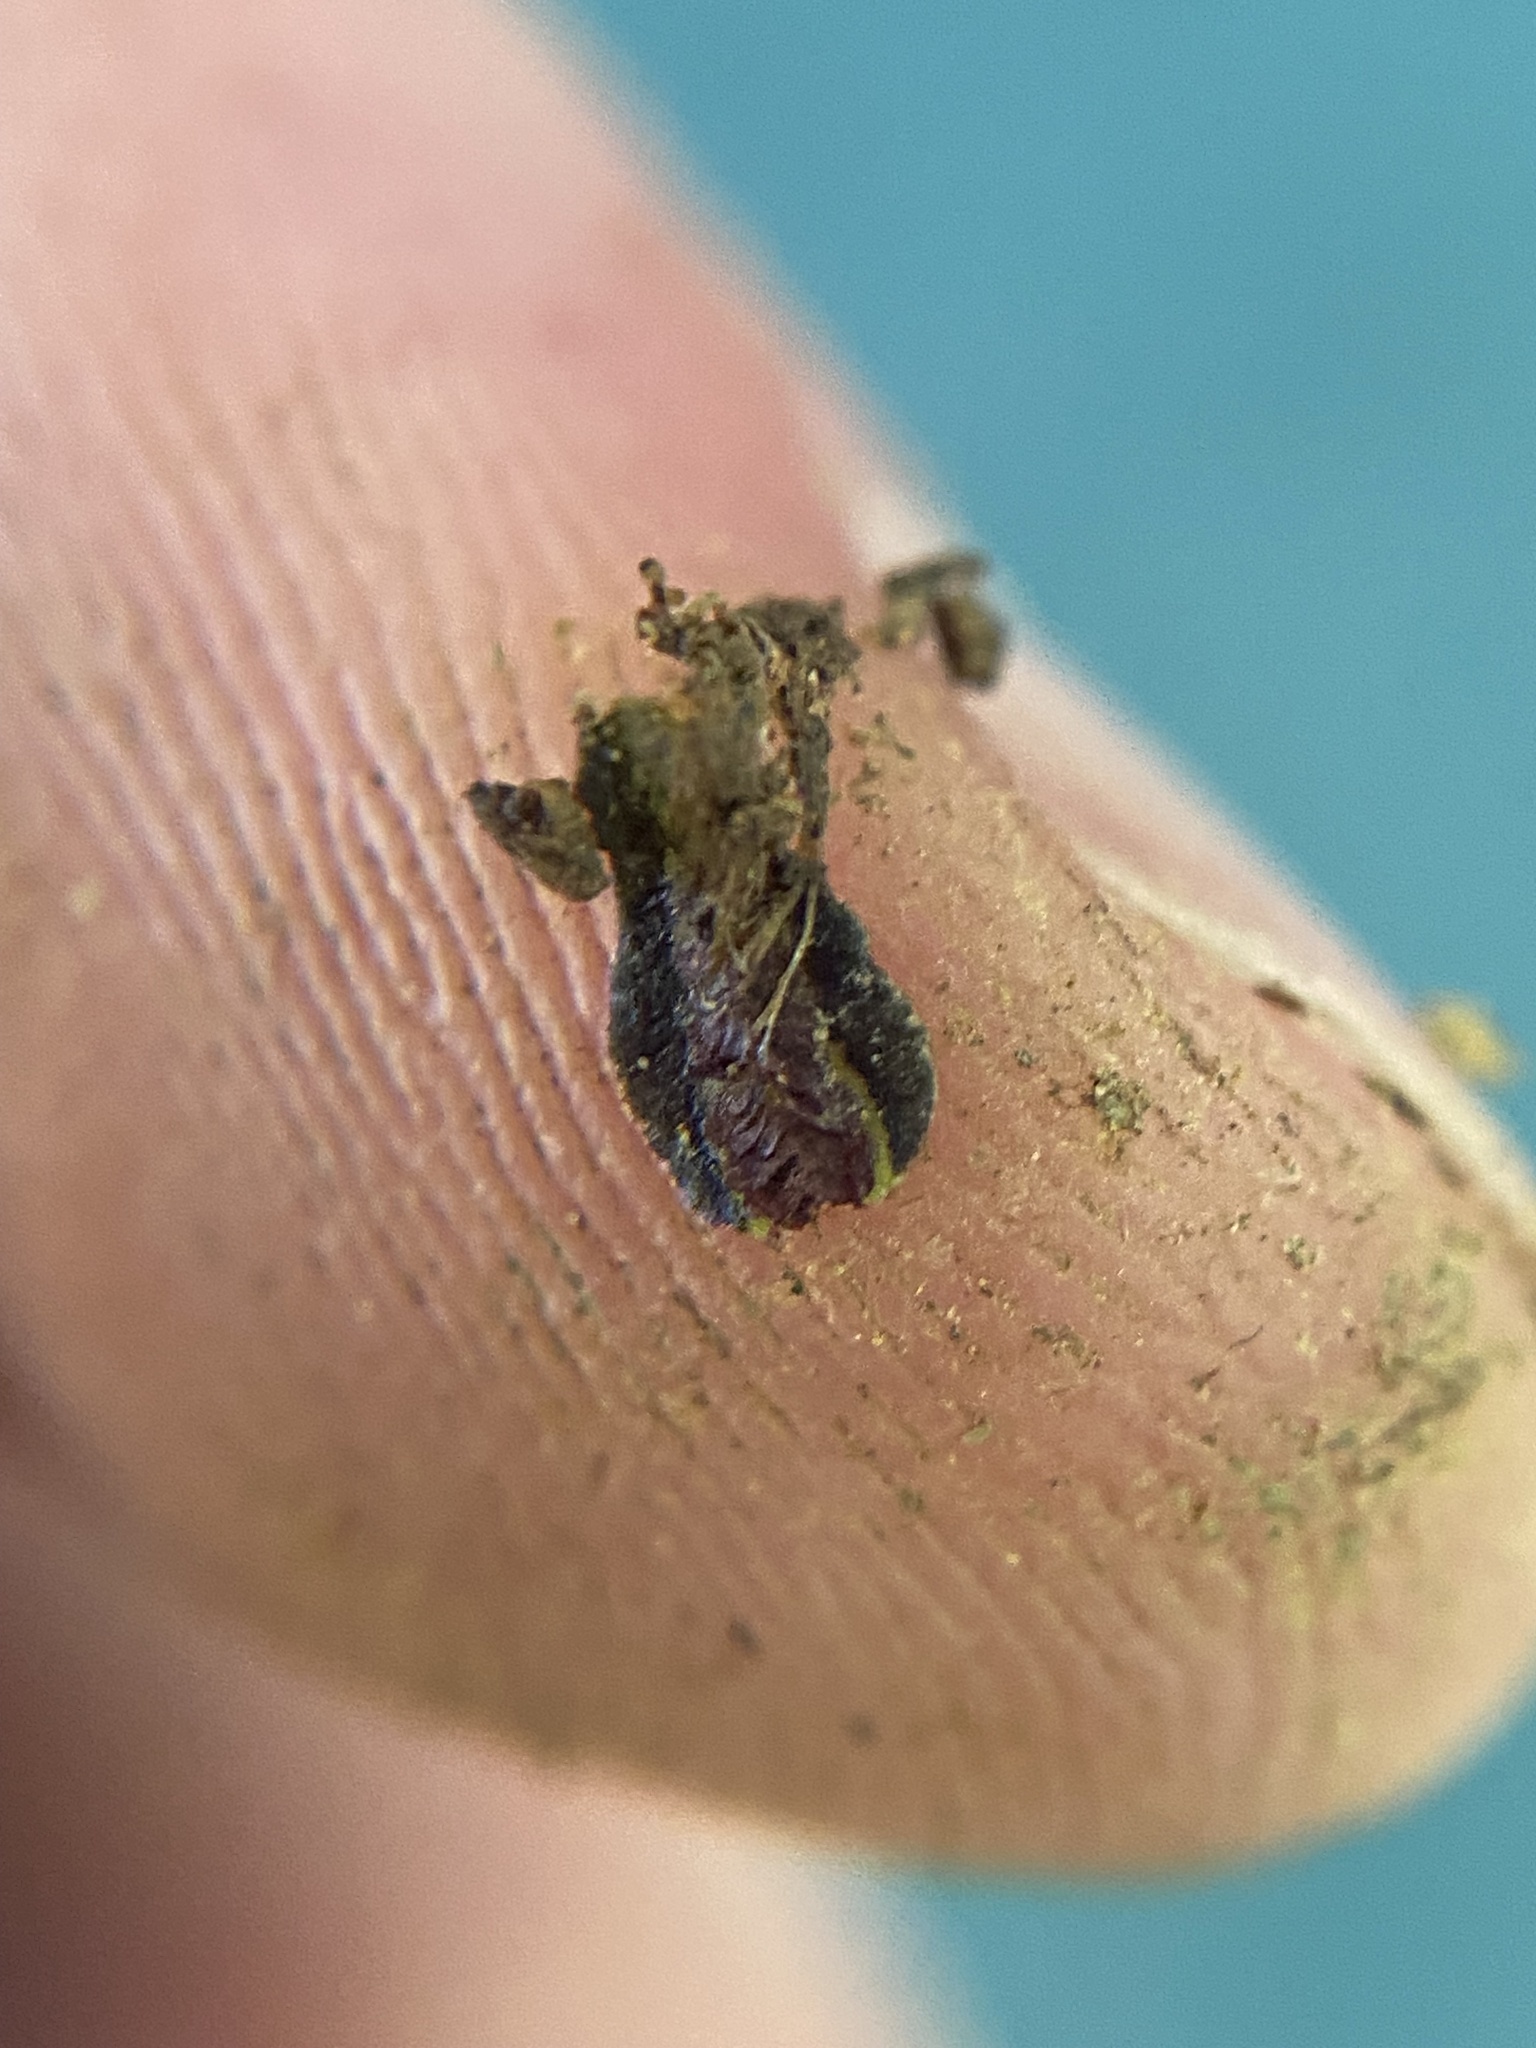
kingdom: Plantae
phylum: Marchantiophyta
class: Marchantiopsida
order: Marchantiales
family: Targioniaceae
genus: Targionia
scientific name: Targionia hypophylla
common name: Orobus-seed liverwort
